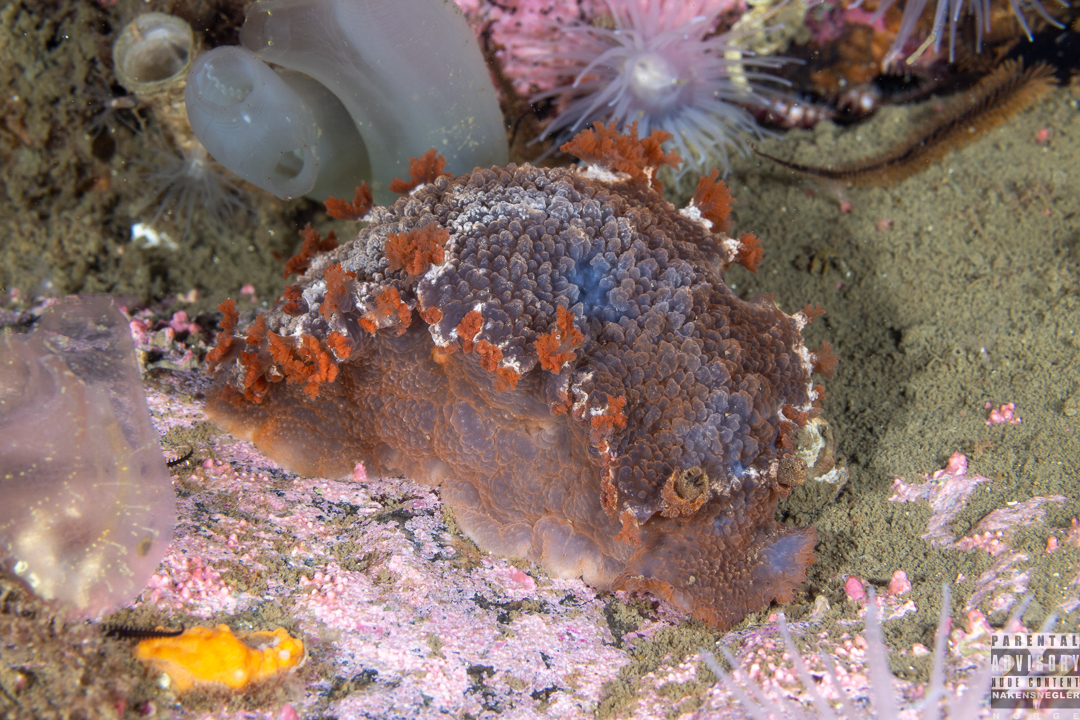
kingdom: Animalia
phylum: Mollusca
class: Gastropoda
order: Nudibranchia
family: Tritoniidae
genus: Tritonia
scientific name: Tritonia hombergii
